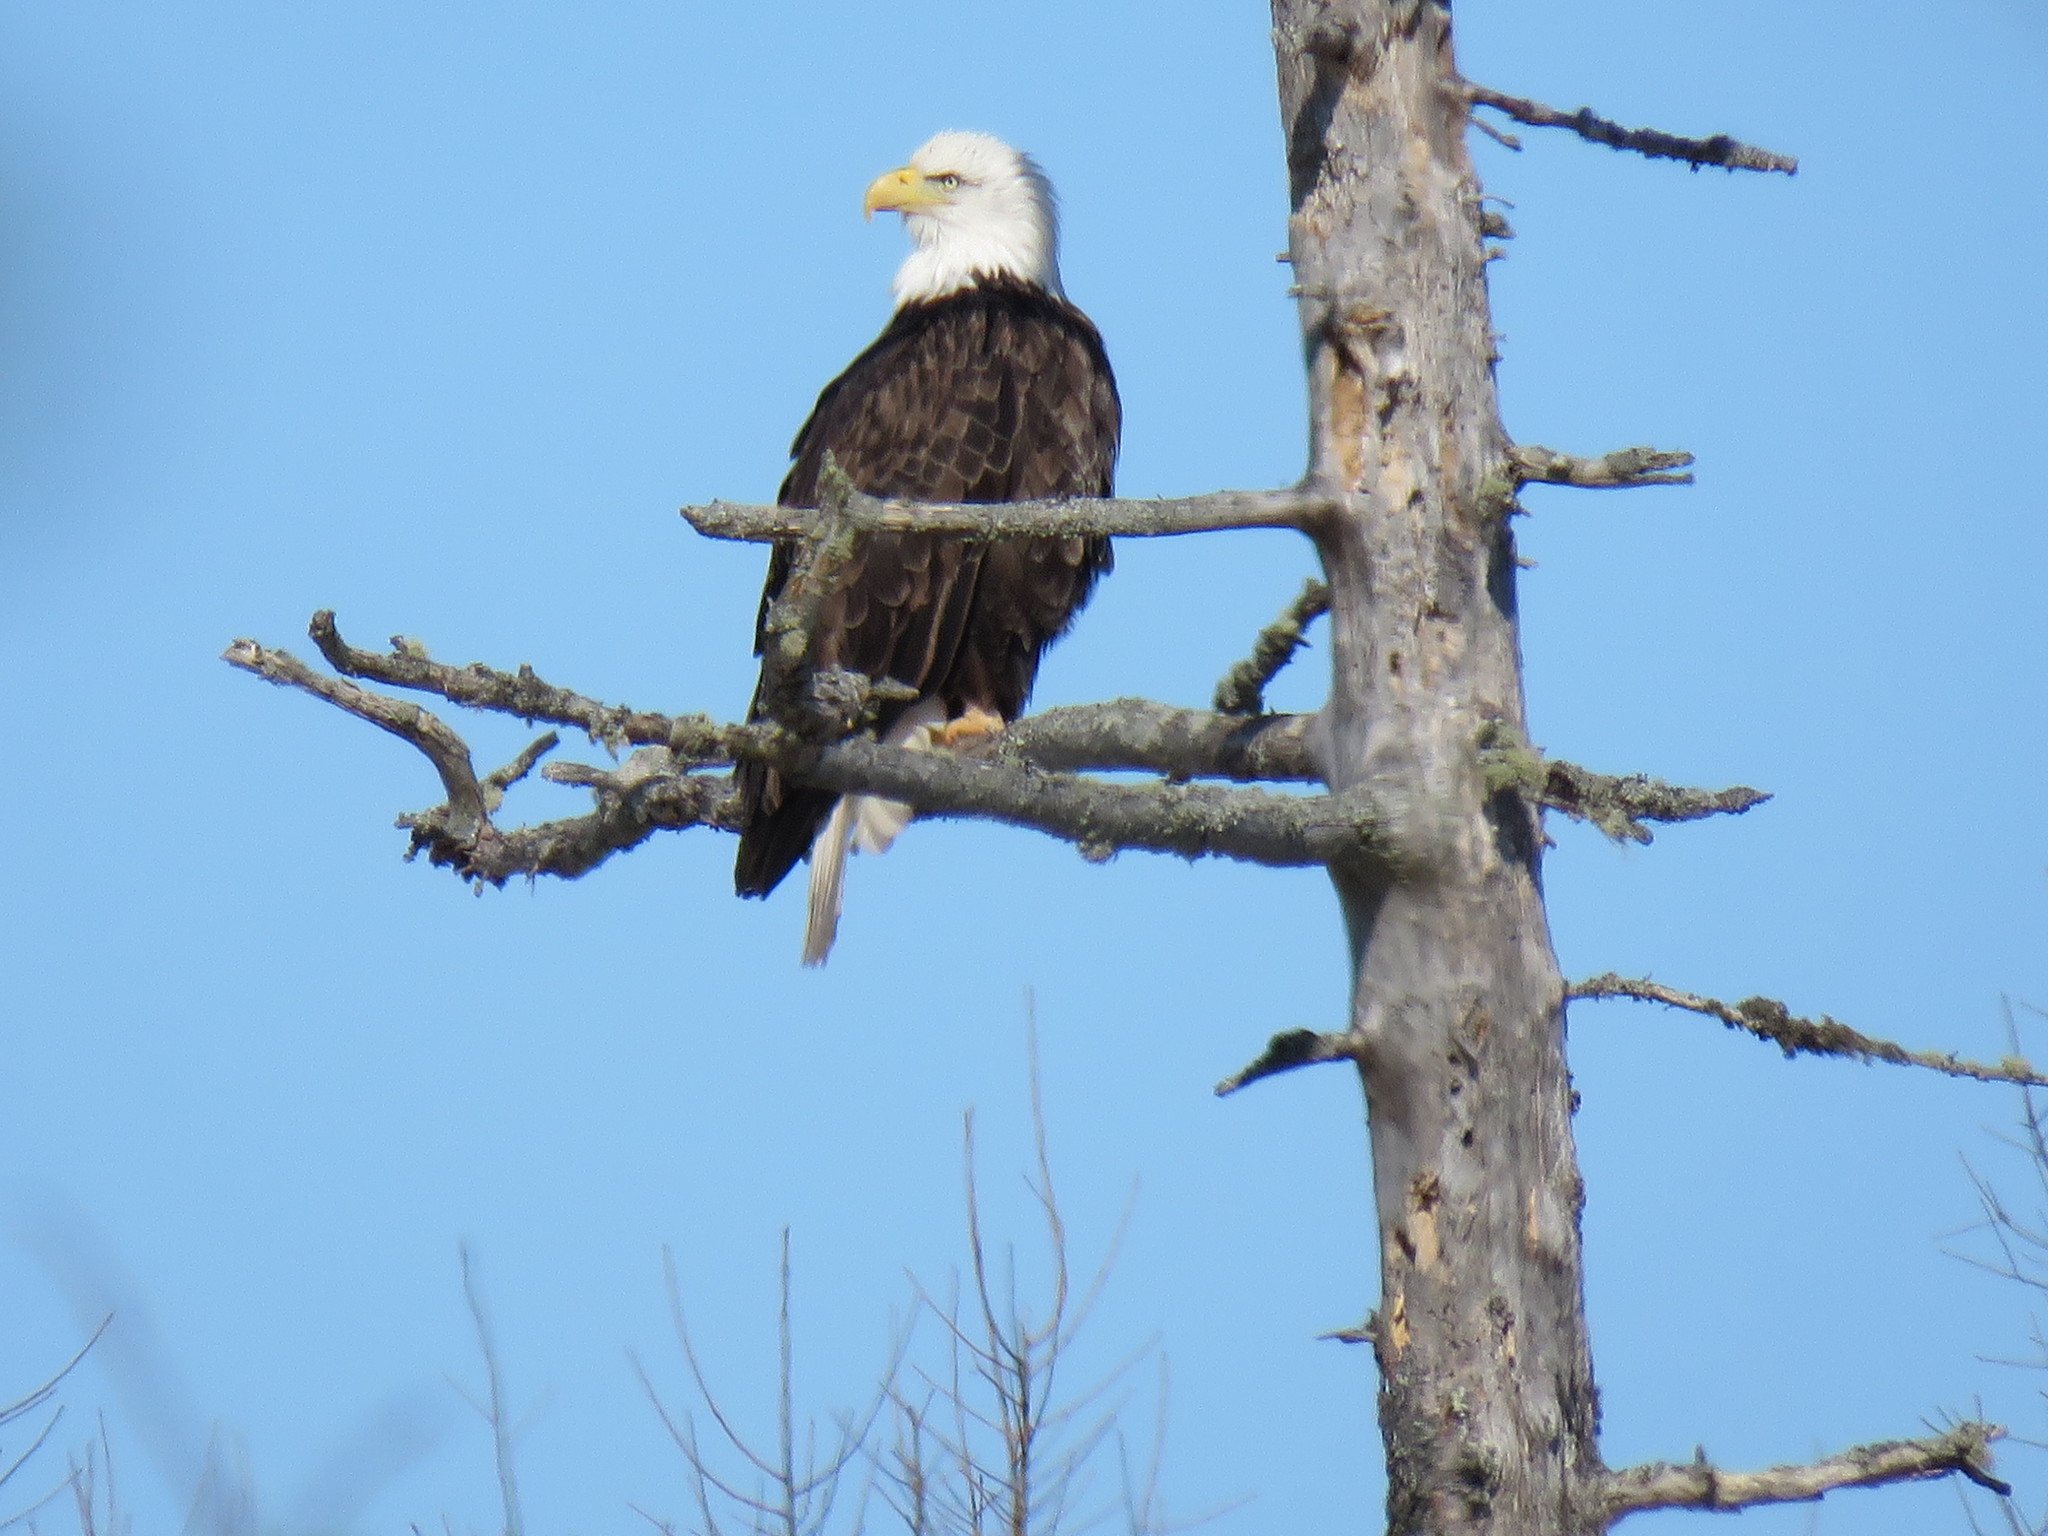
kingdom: Animalia
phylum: Chordata
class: Aves
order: Accipitriformes
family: Accipitridae
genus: Haliaeetus
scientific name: Haliaeetus leucocephalus
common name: Bald eagle
